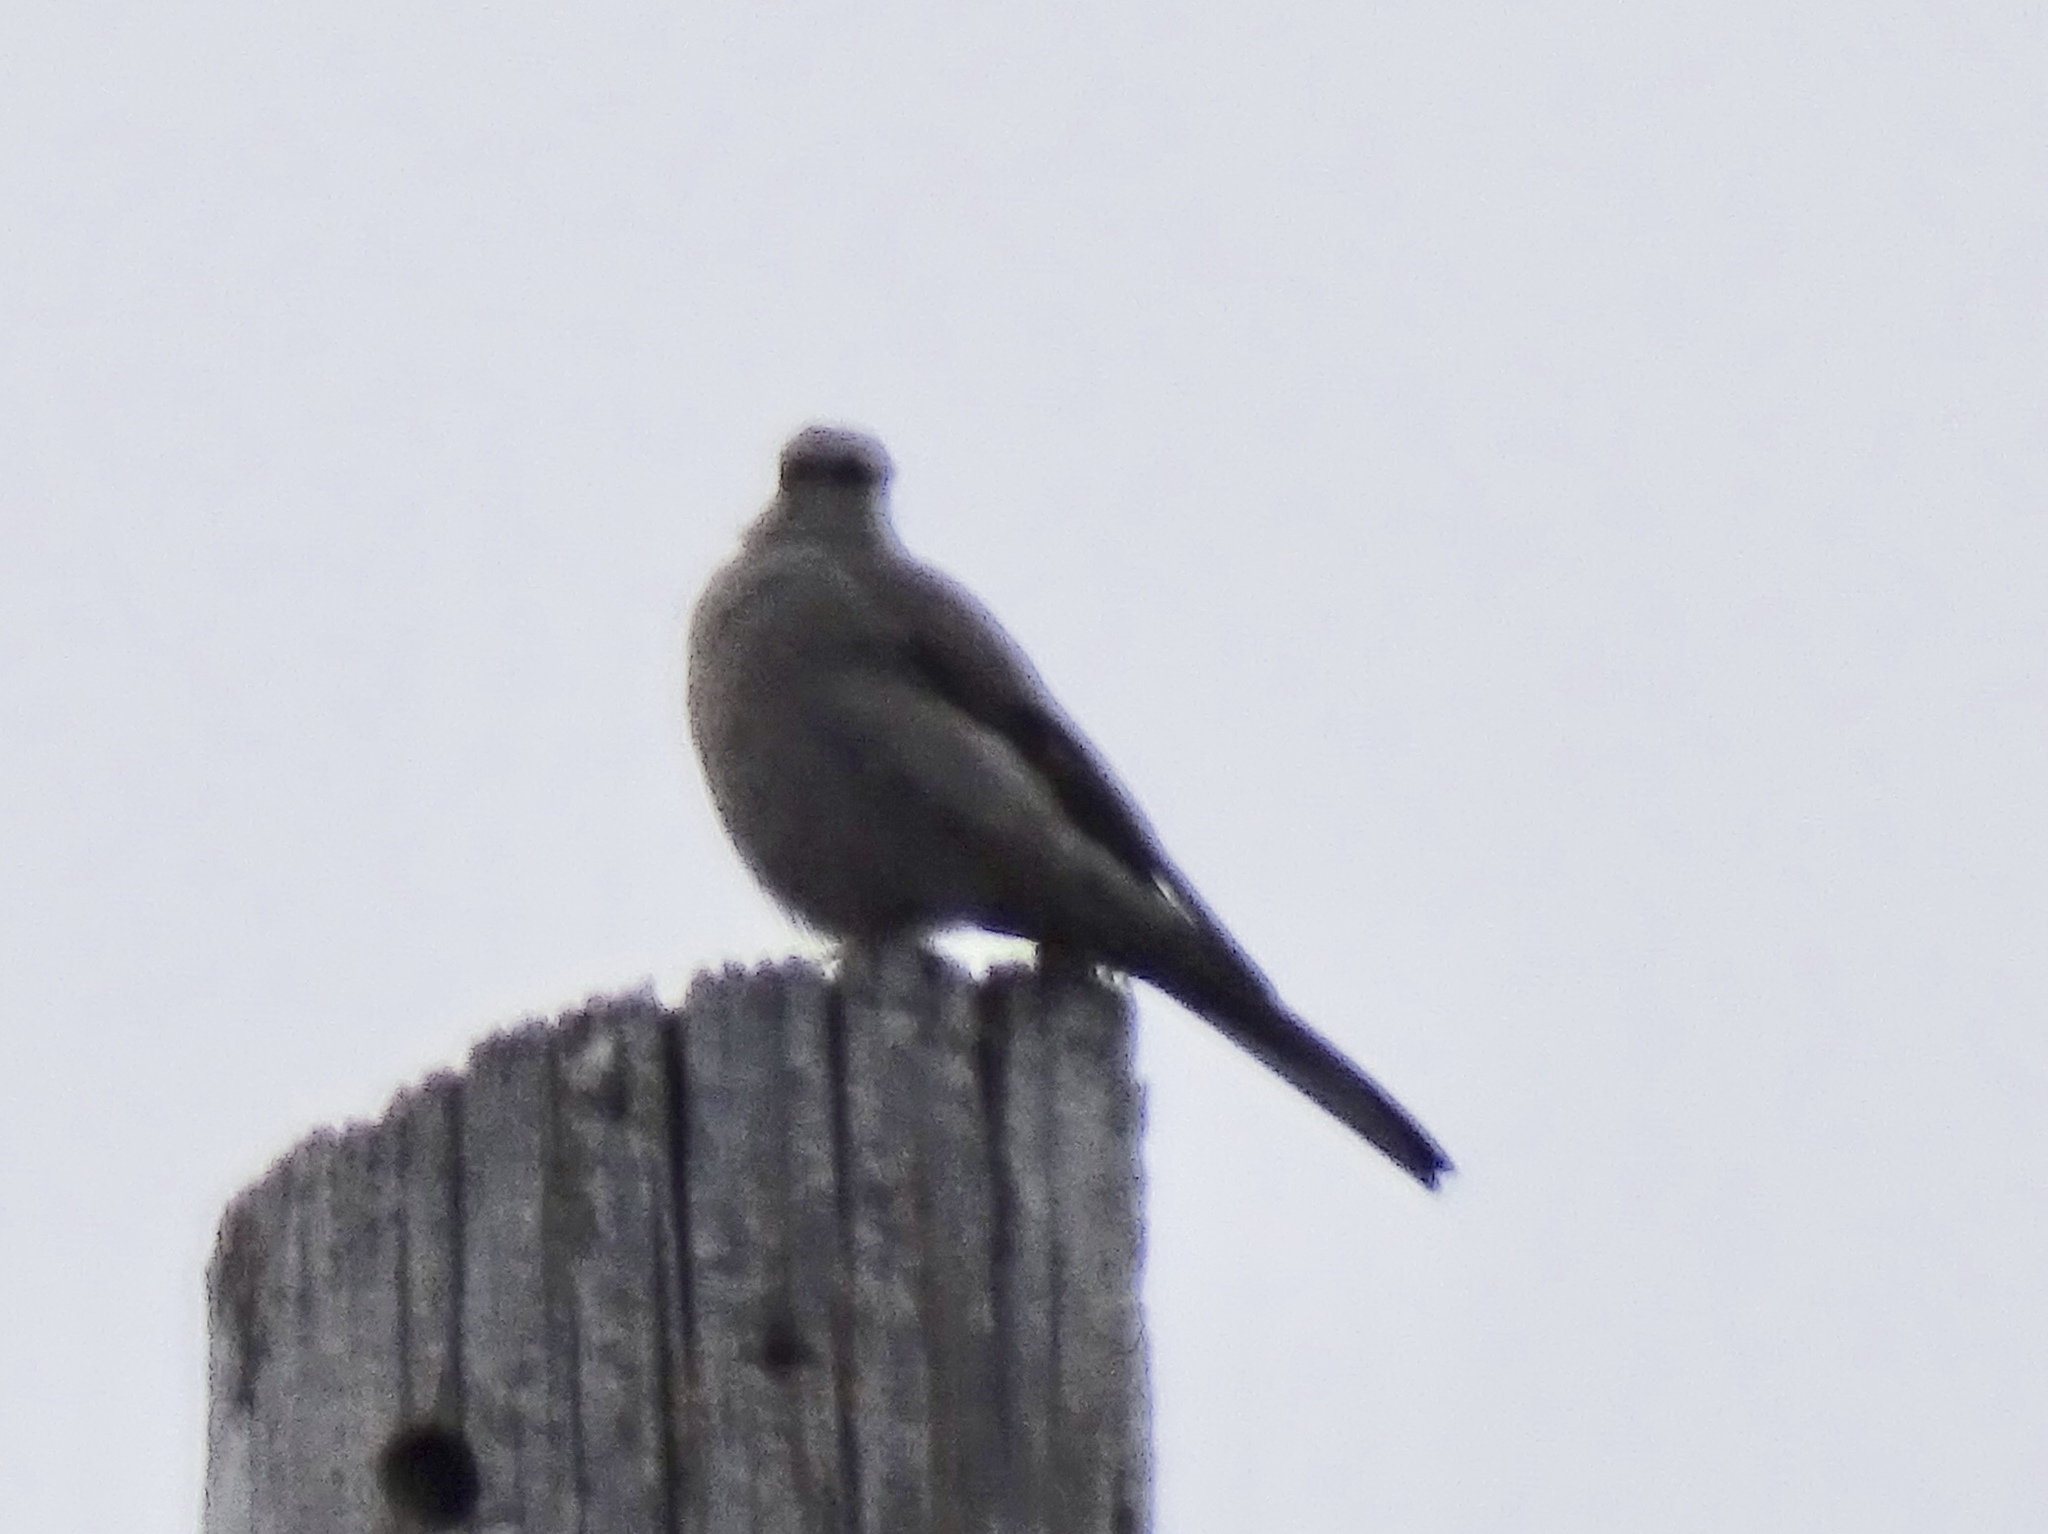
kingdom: Animalia
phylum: Chordata
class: Aves
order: Passeriformes
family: Turdidae
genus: Myadestes
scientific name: Myadestes townsendi
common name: Townsend's solitaire
